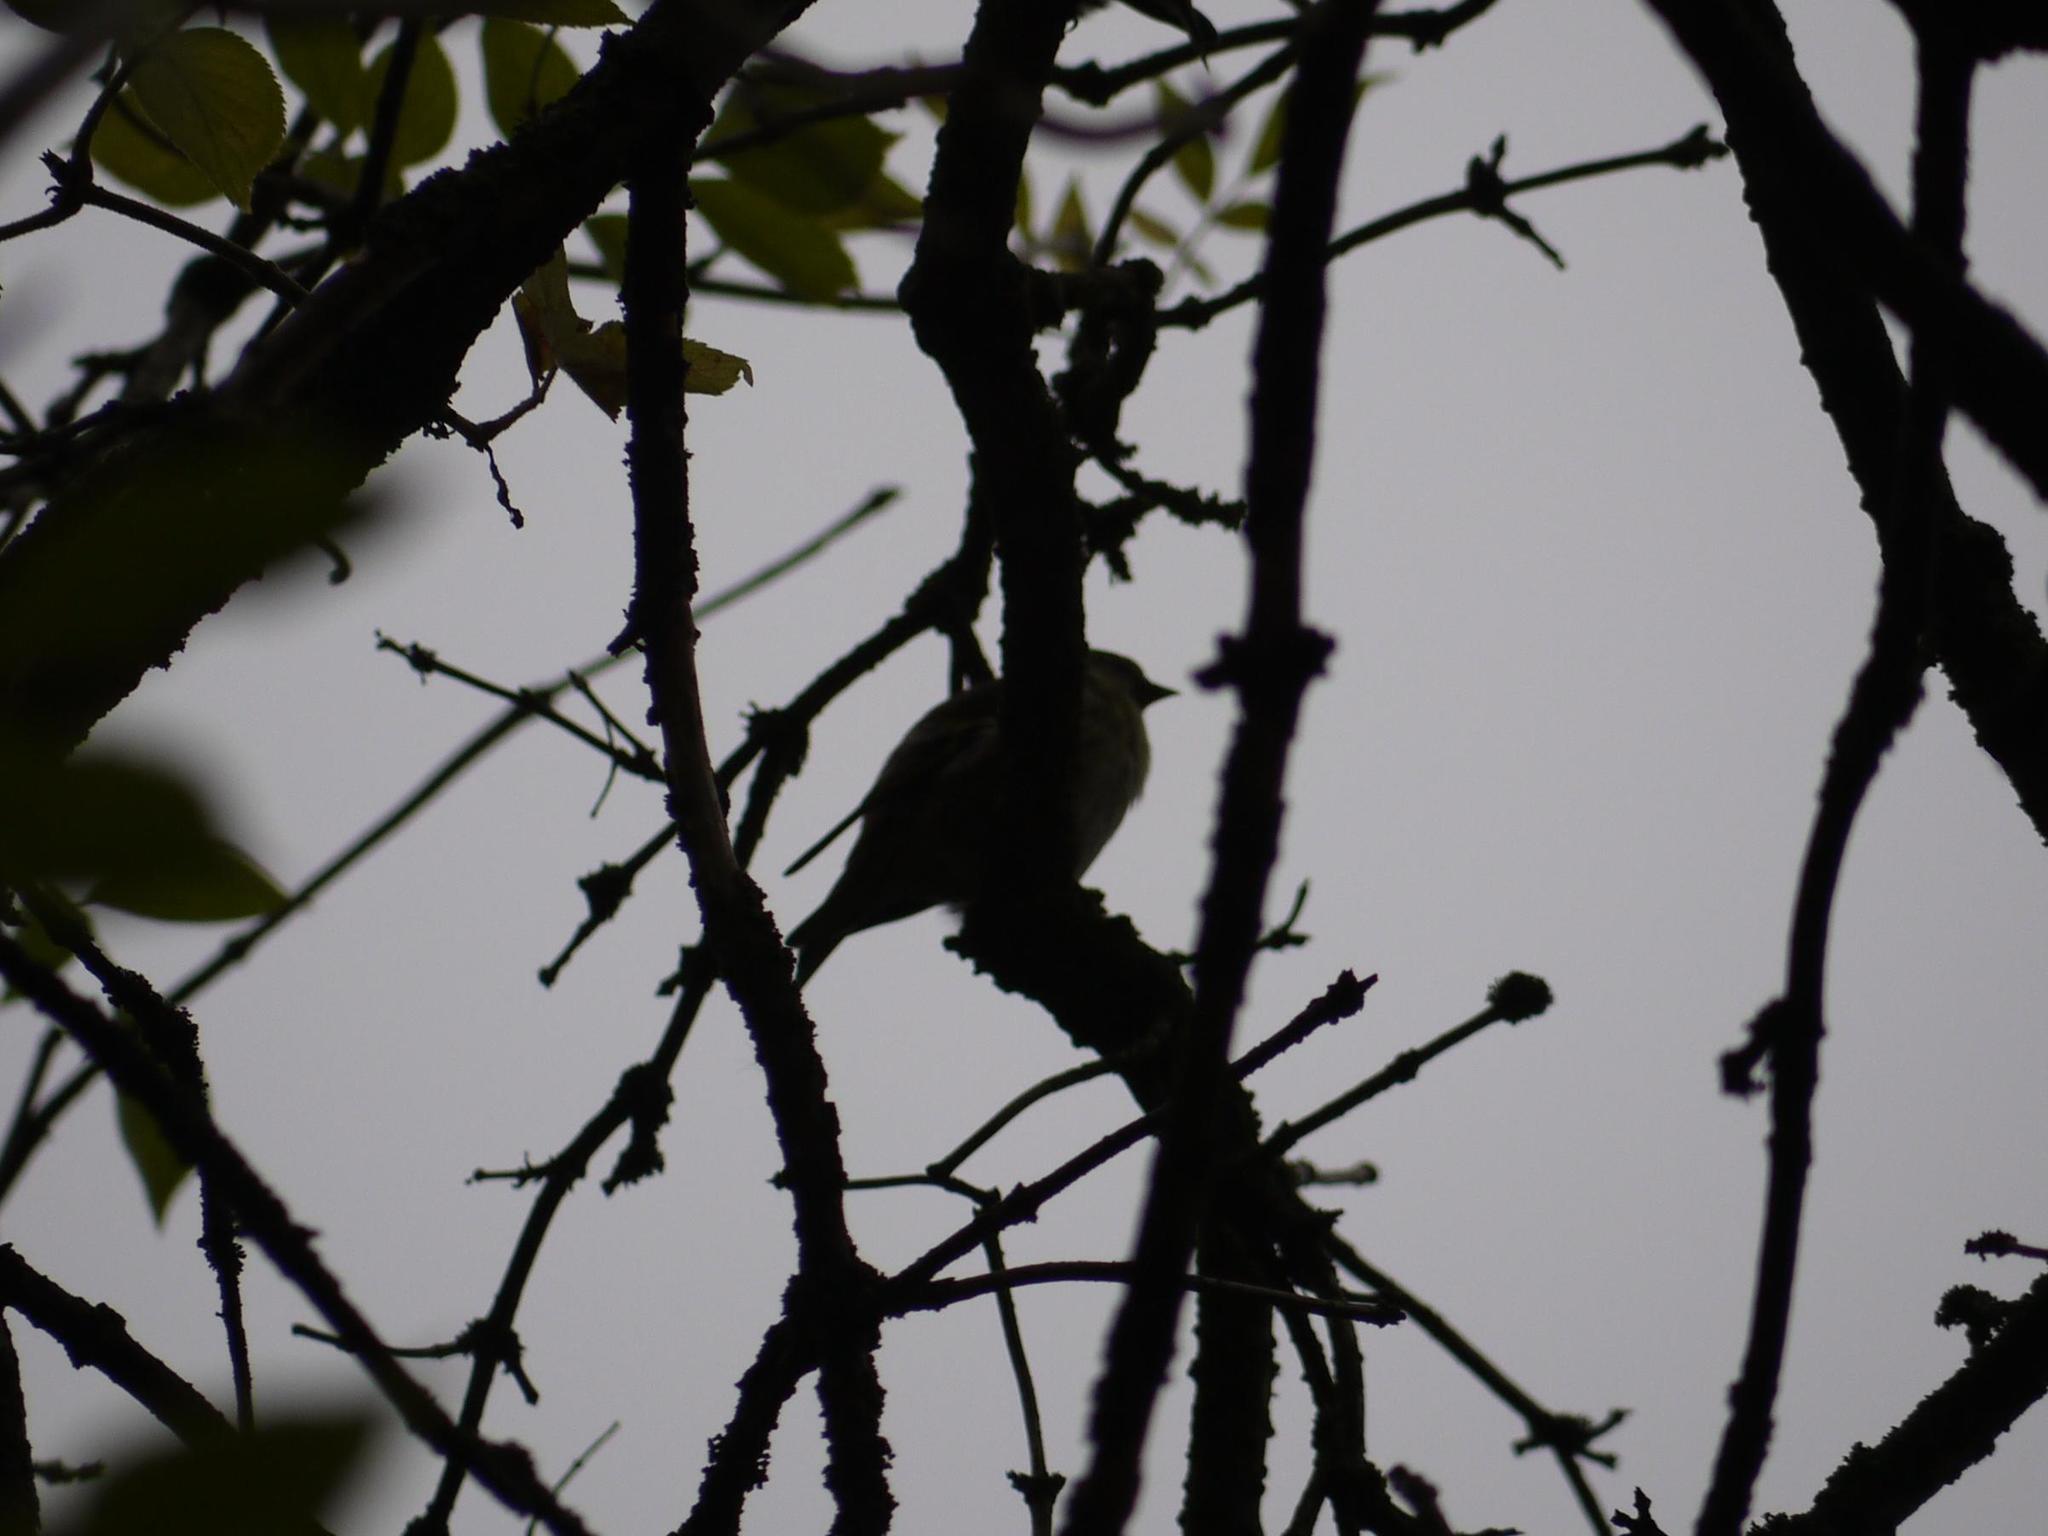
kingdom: Animalia
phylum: Chordata
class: Aves
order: Passeriformes
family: Fringillidae
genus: Spinus
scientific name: Spinus spinus
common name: Eurasian siskin
